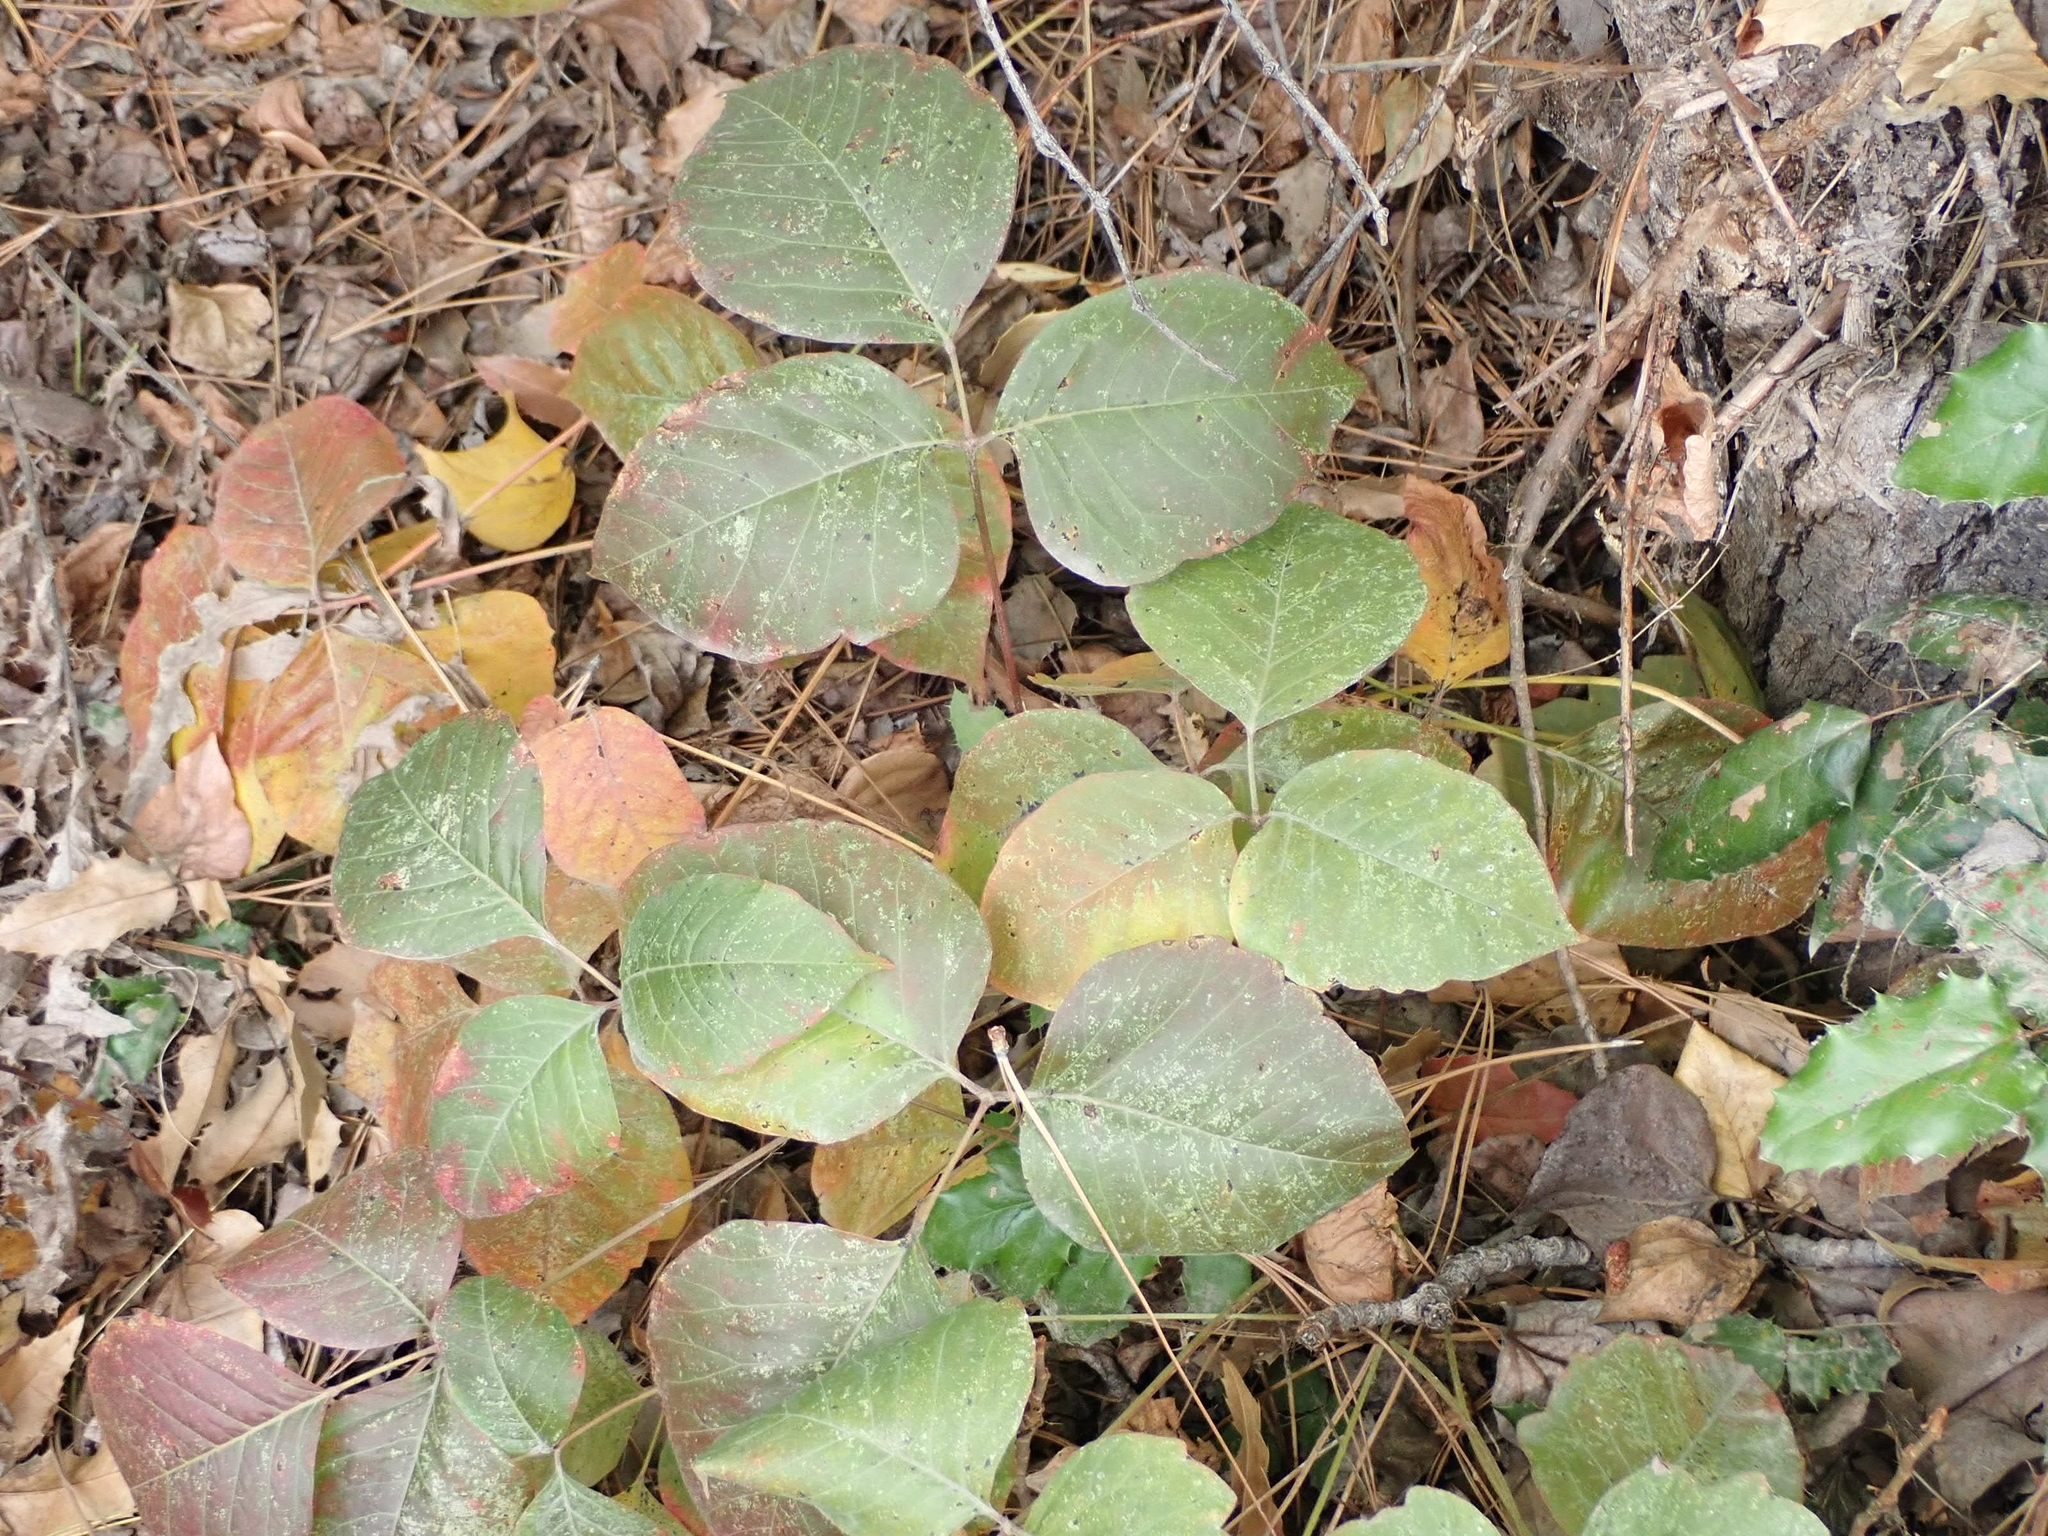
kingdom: Plantae
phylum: Tracheophyta
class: Magnoliopsida
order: Sapindales
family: Anacardiaceae
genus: Toxicodendron
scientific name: Toxicodendron rydbergii
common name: Rydberg's poison-ivy
